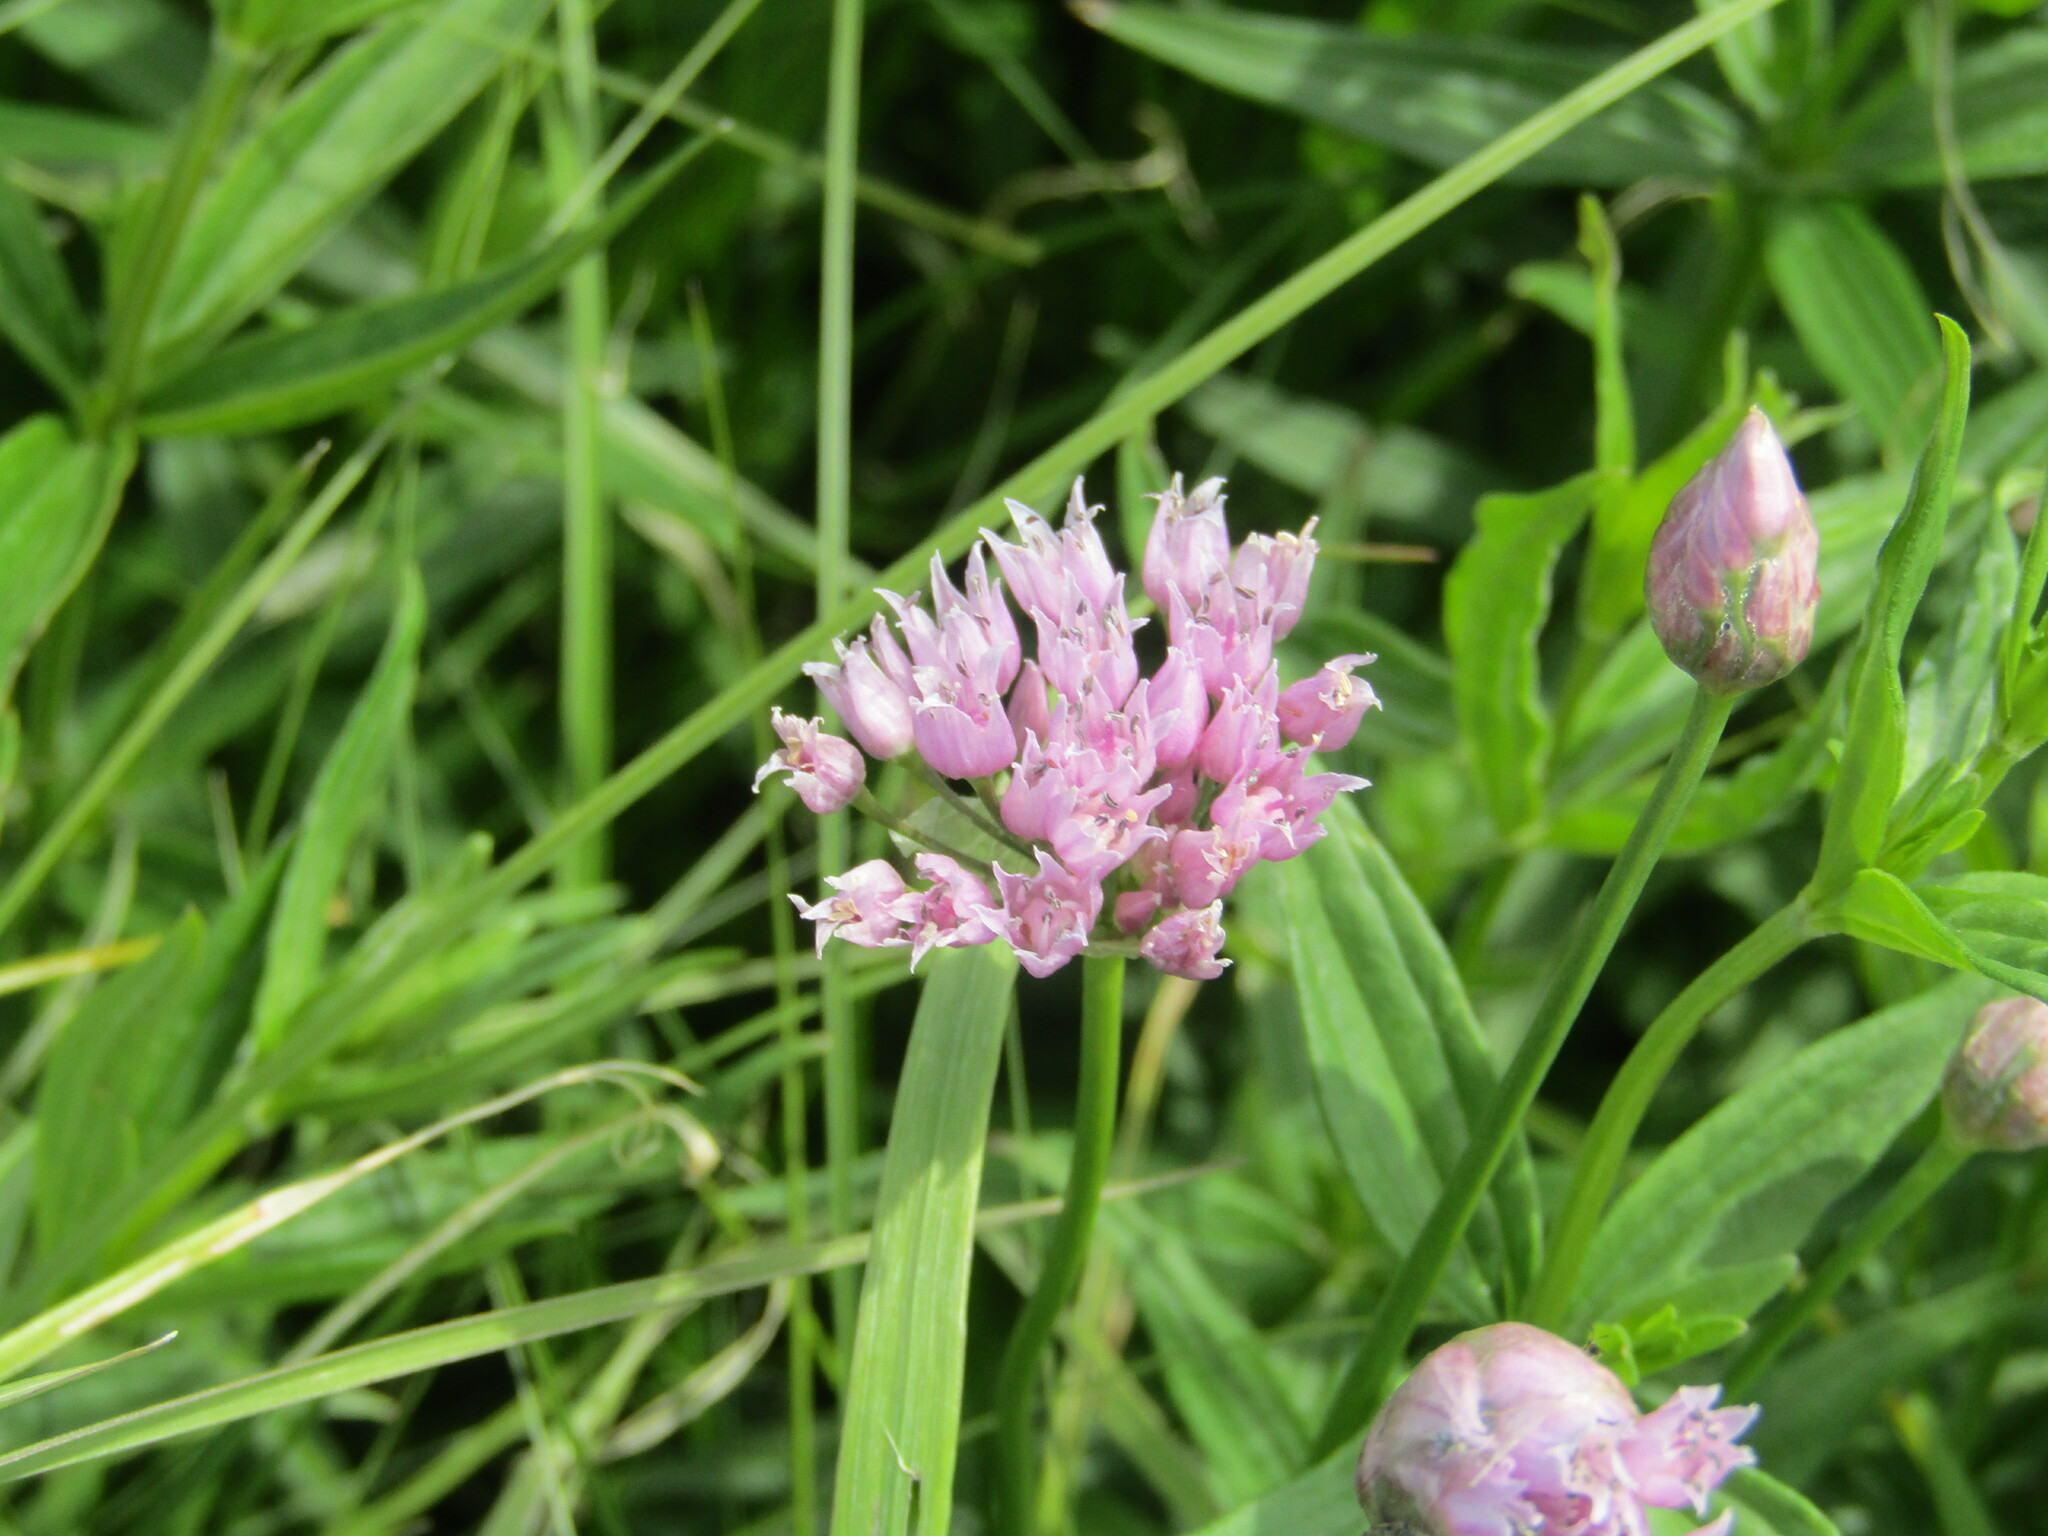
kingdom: Plantae
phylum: Tracheophyta
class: Liliopsida
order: Asparagales
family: Amaryllidaceae
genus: Allium
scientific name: Allium angulosum
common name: Mouse garlic
